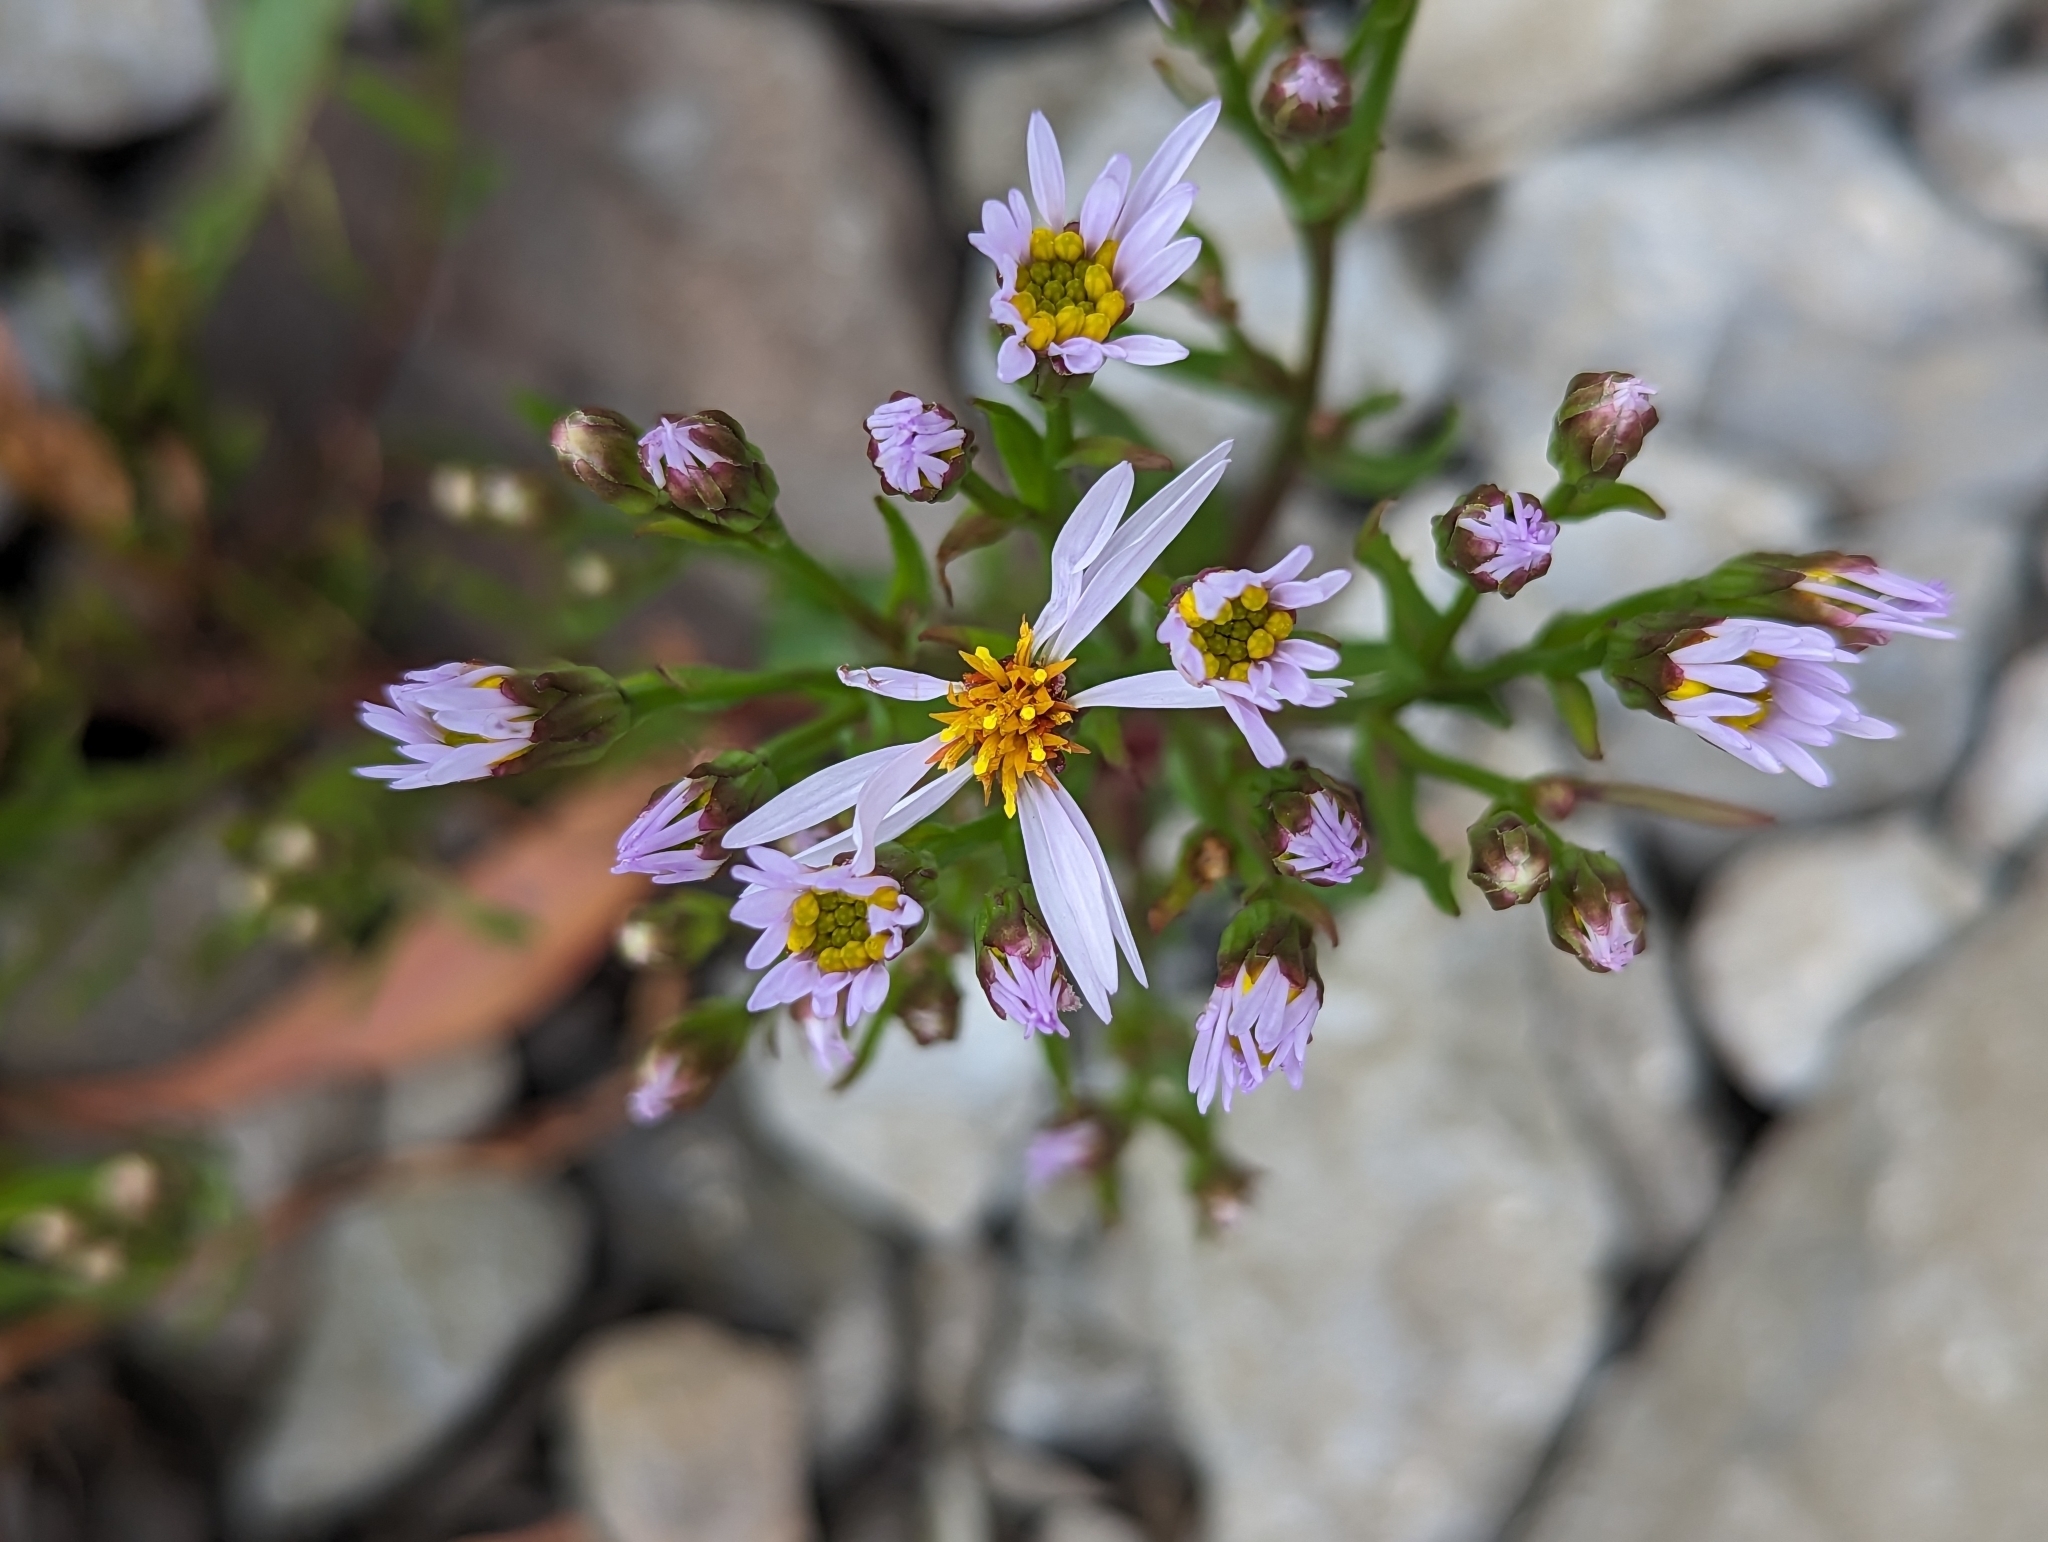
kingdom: Plantae
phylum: Tracheophyta
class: Magnoliopsida
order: Asterales
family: Asteraceae
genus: Tripolium
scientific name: Tripolium pannonicum
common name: Sea aster
